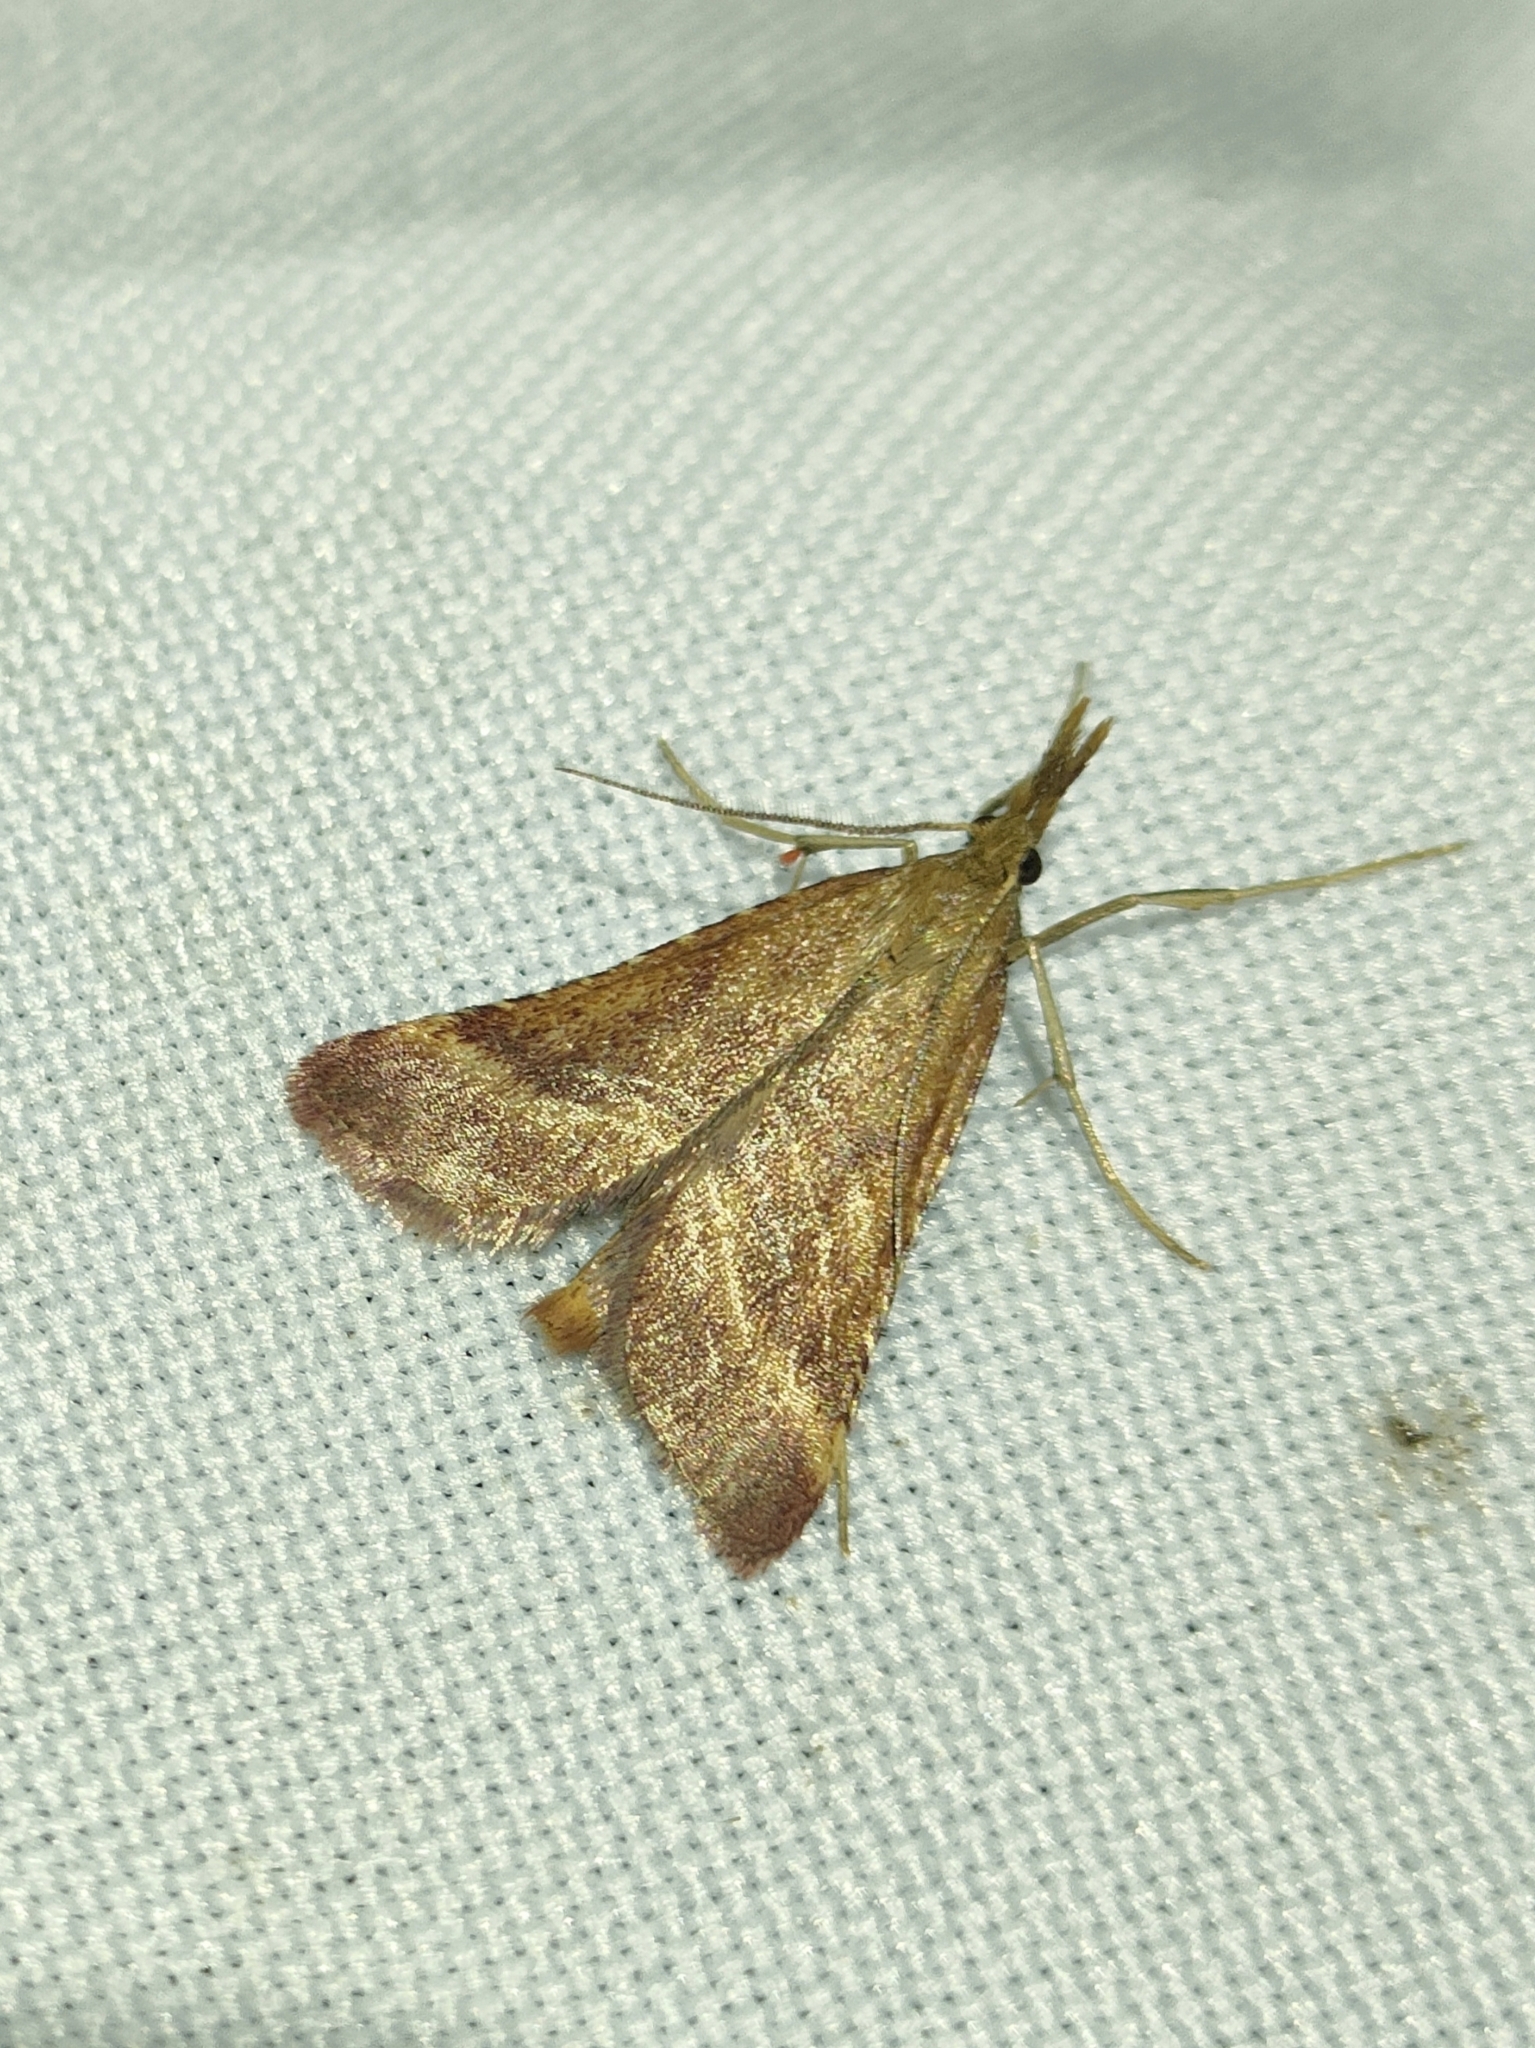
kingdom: Animalia
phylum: Arthropoda
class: Insecta
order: Lepidoptera
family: Pyralidae
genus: Synaphe
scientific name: Synaphe punctalis
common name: Long-legged tabby
